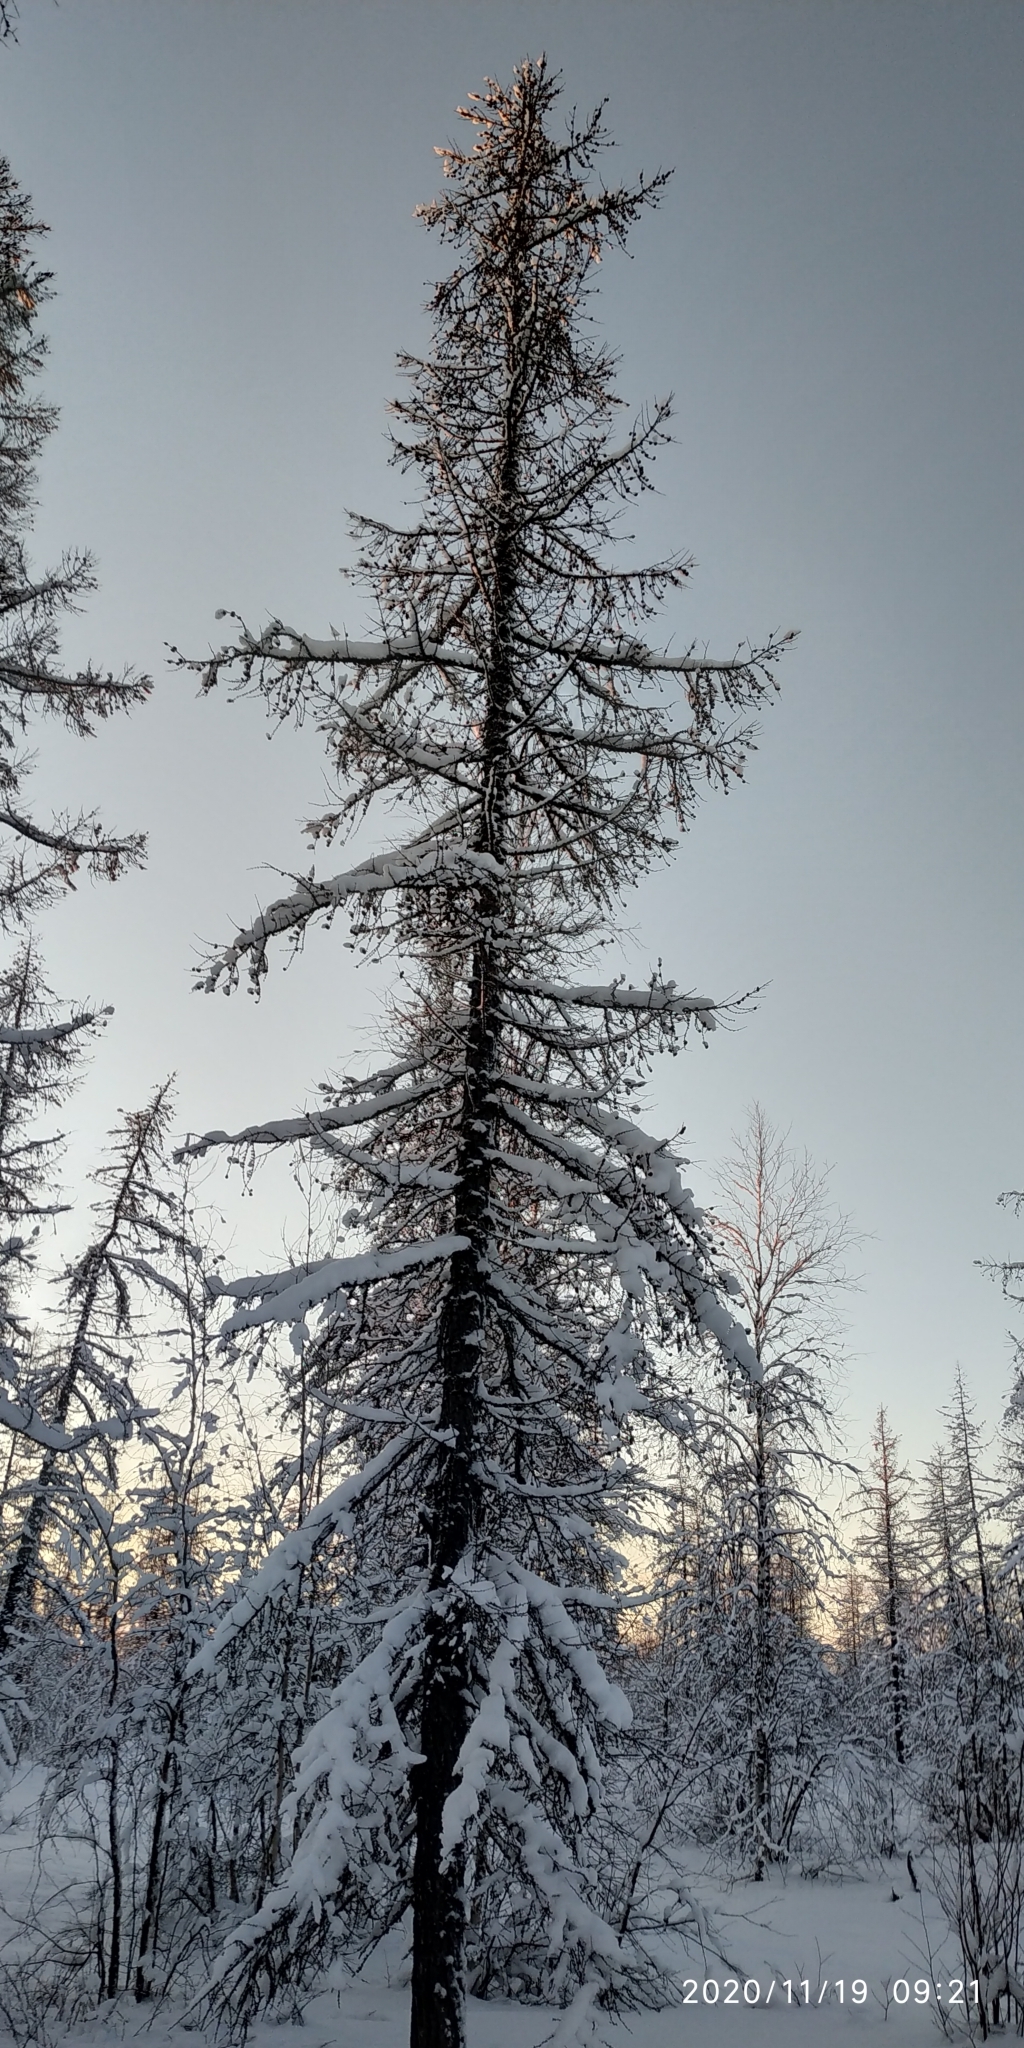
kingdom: Plantae
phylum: Tracheophyta
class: Pinopsida
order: Pinales
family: Pinaceae
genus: Larix
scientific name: Larix sibirica
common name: Siberian larch
